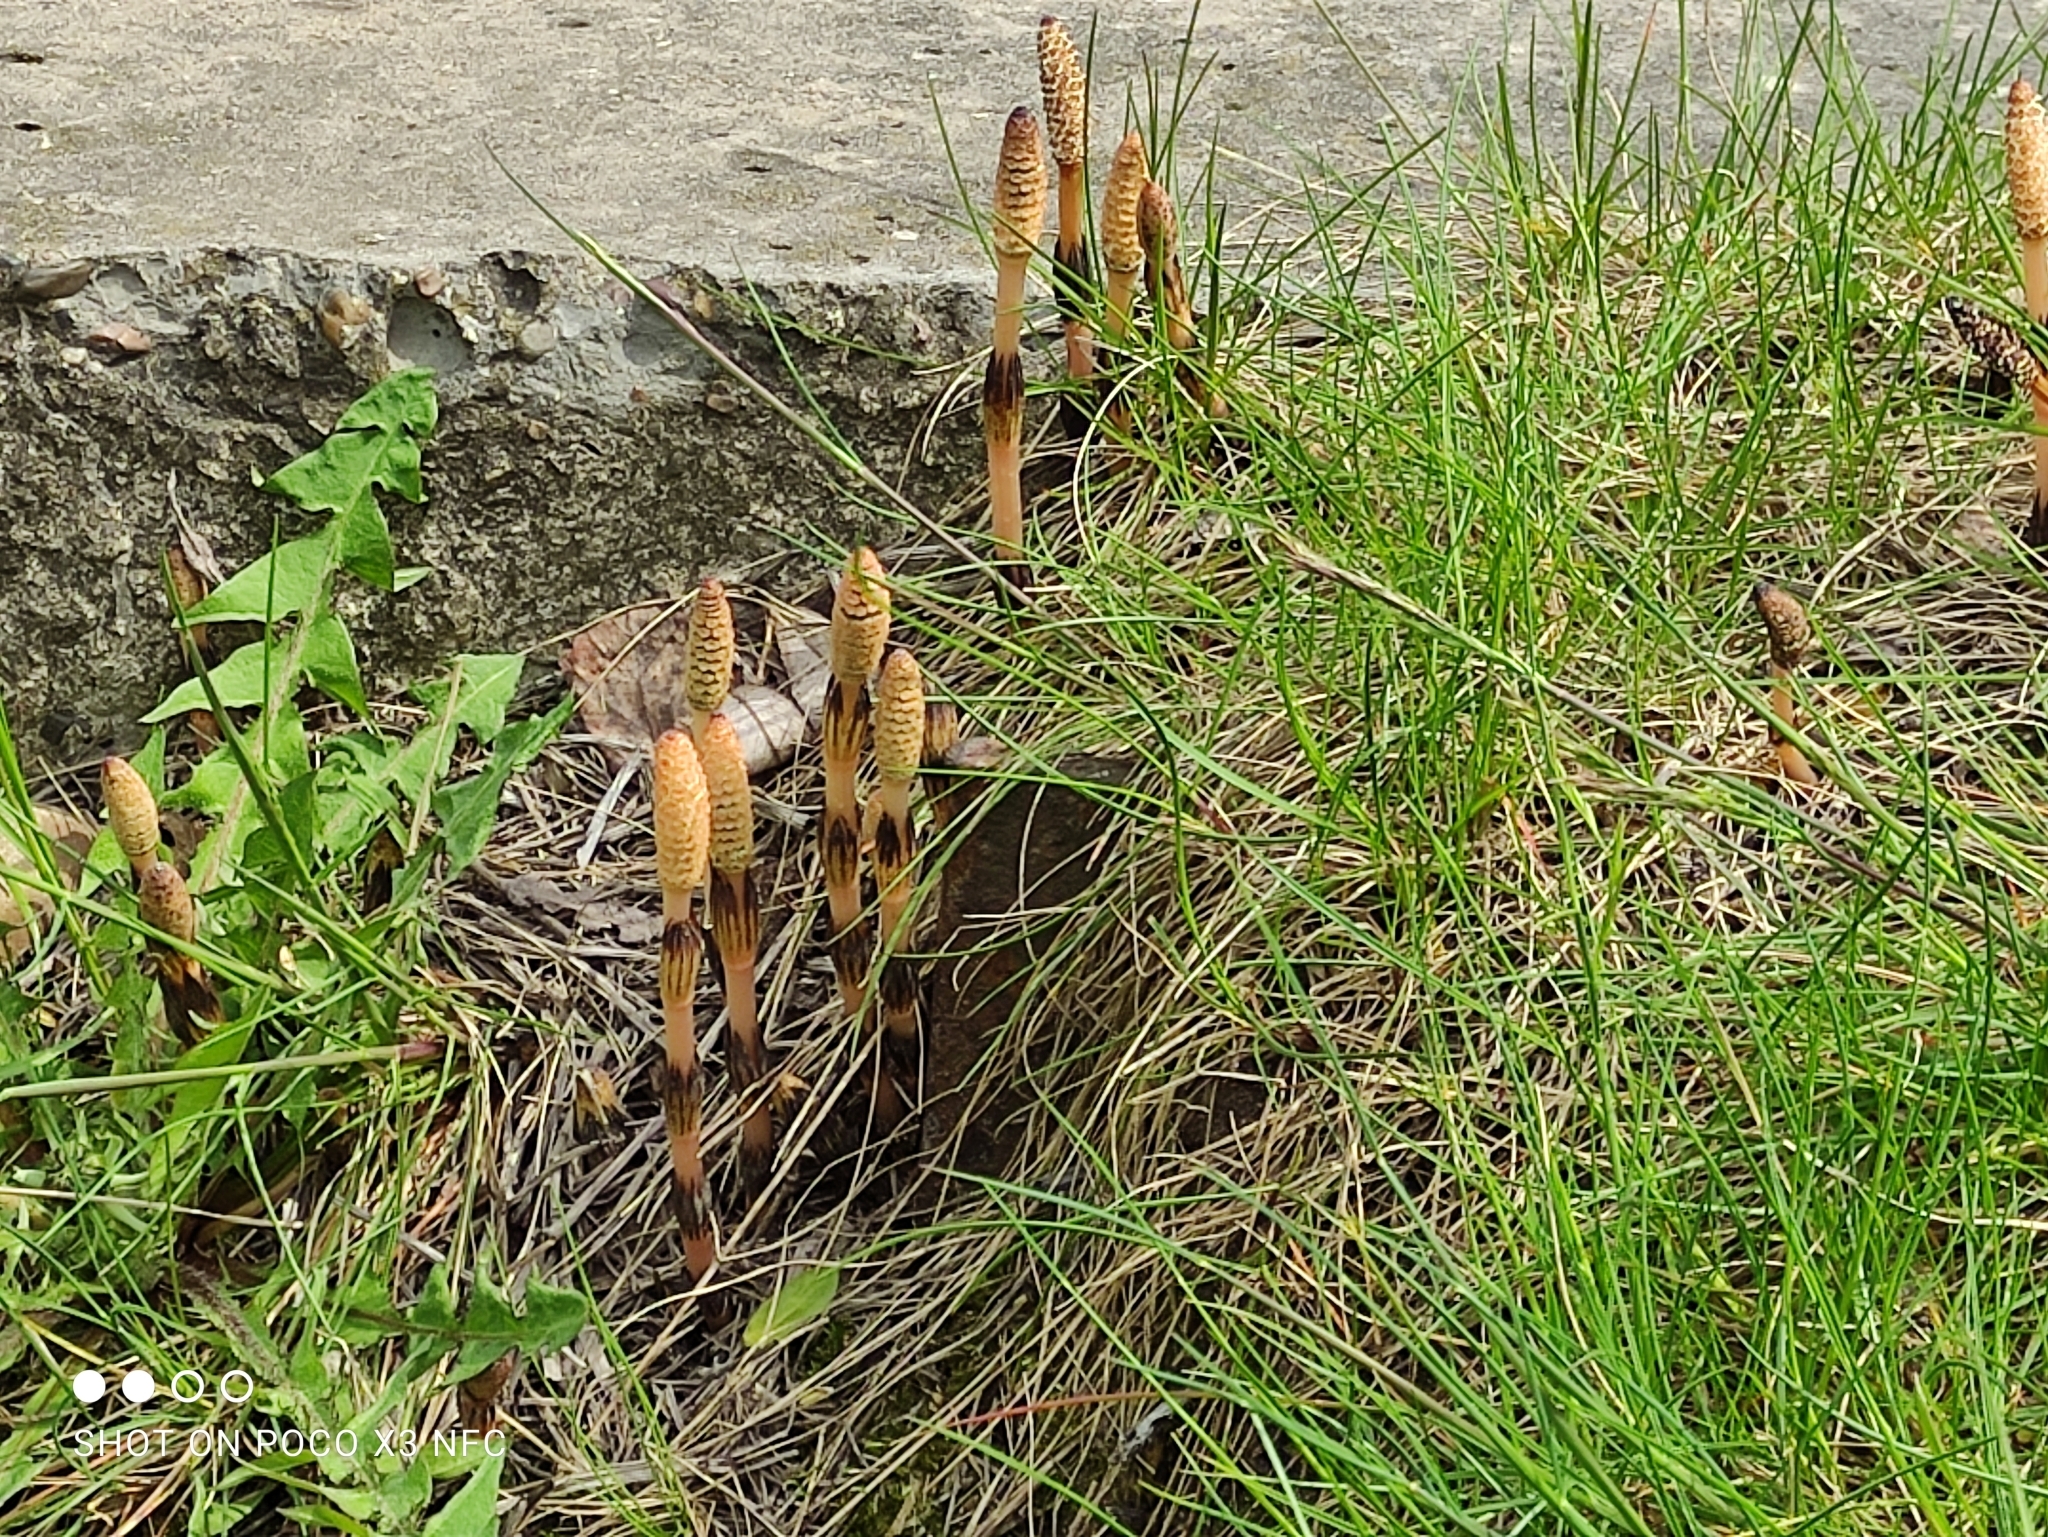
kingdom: Plantae
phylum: Tracheophyta
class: Polypodiopsida
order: Equisetales
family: Equisetaceae
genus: Equisetum
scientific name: Equisetum arvense
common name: Field horsetail
